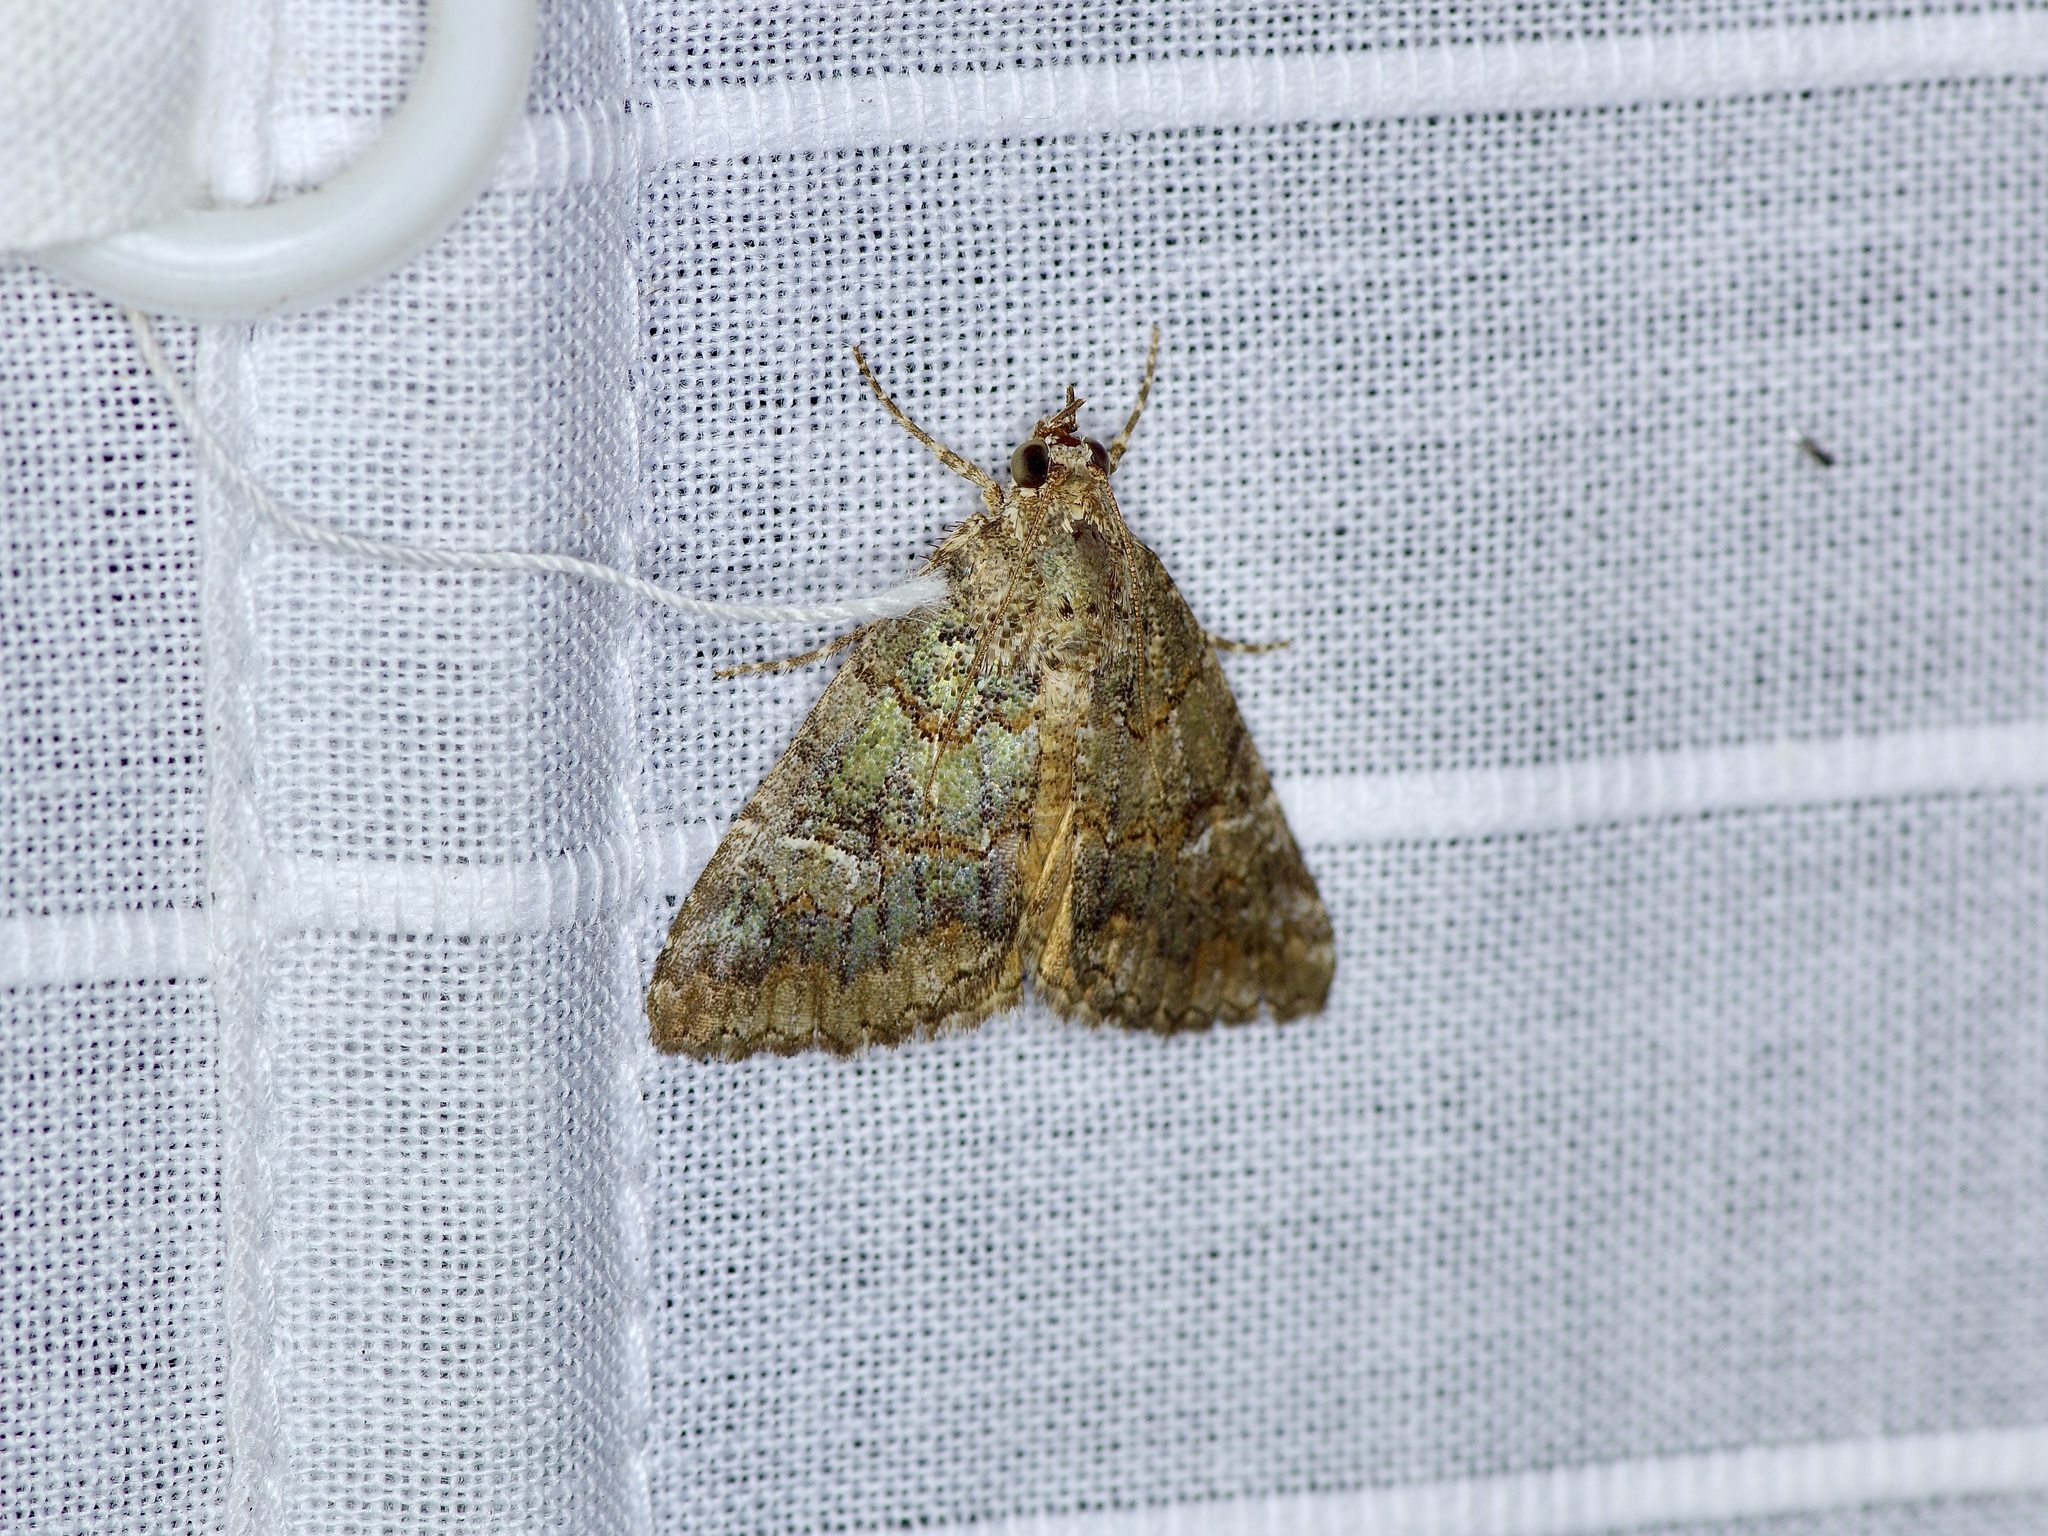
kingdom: Animalia
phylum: Arthropoda
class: Insecta
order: Lepidoptera
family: Erebidae
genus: Eubolina
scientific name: Eubolina impartialis
